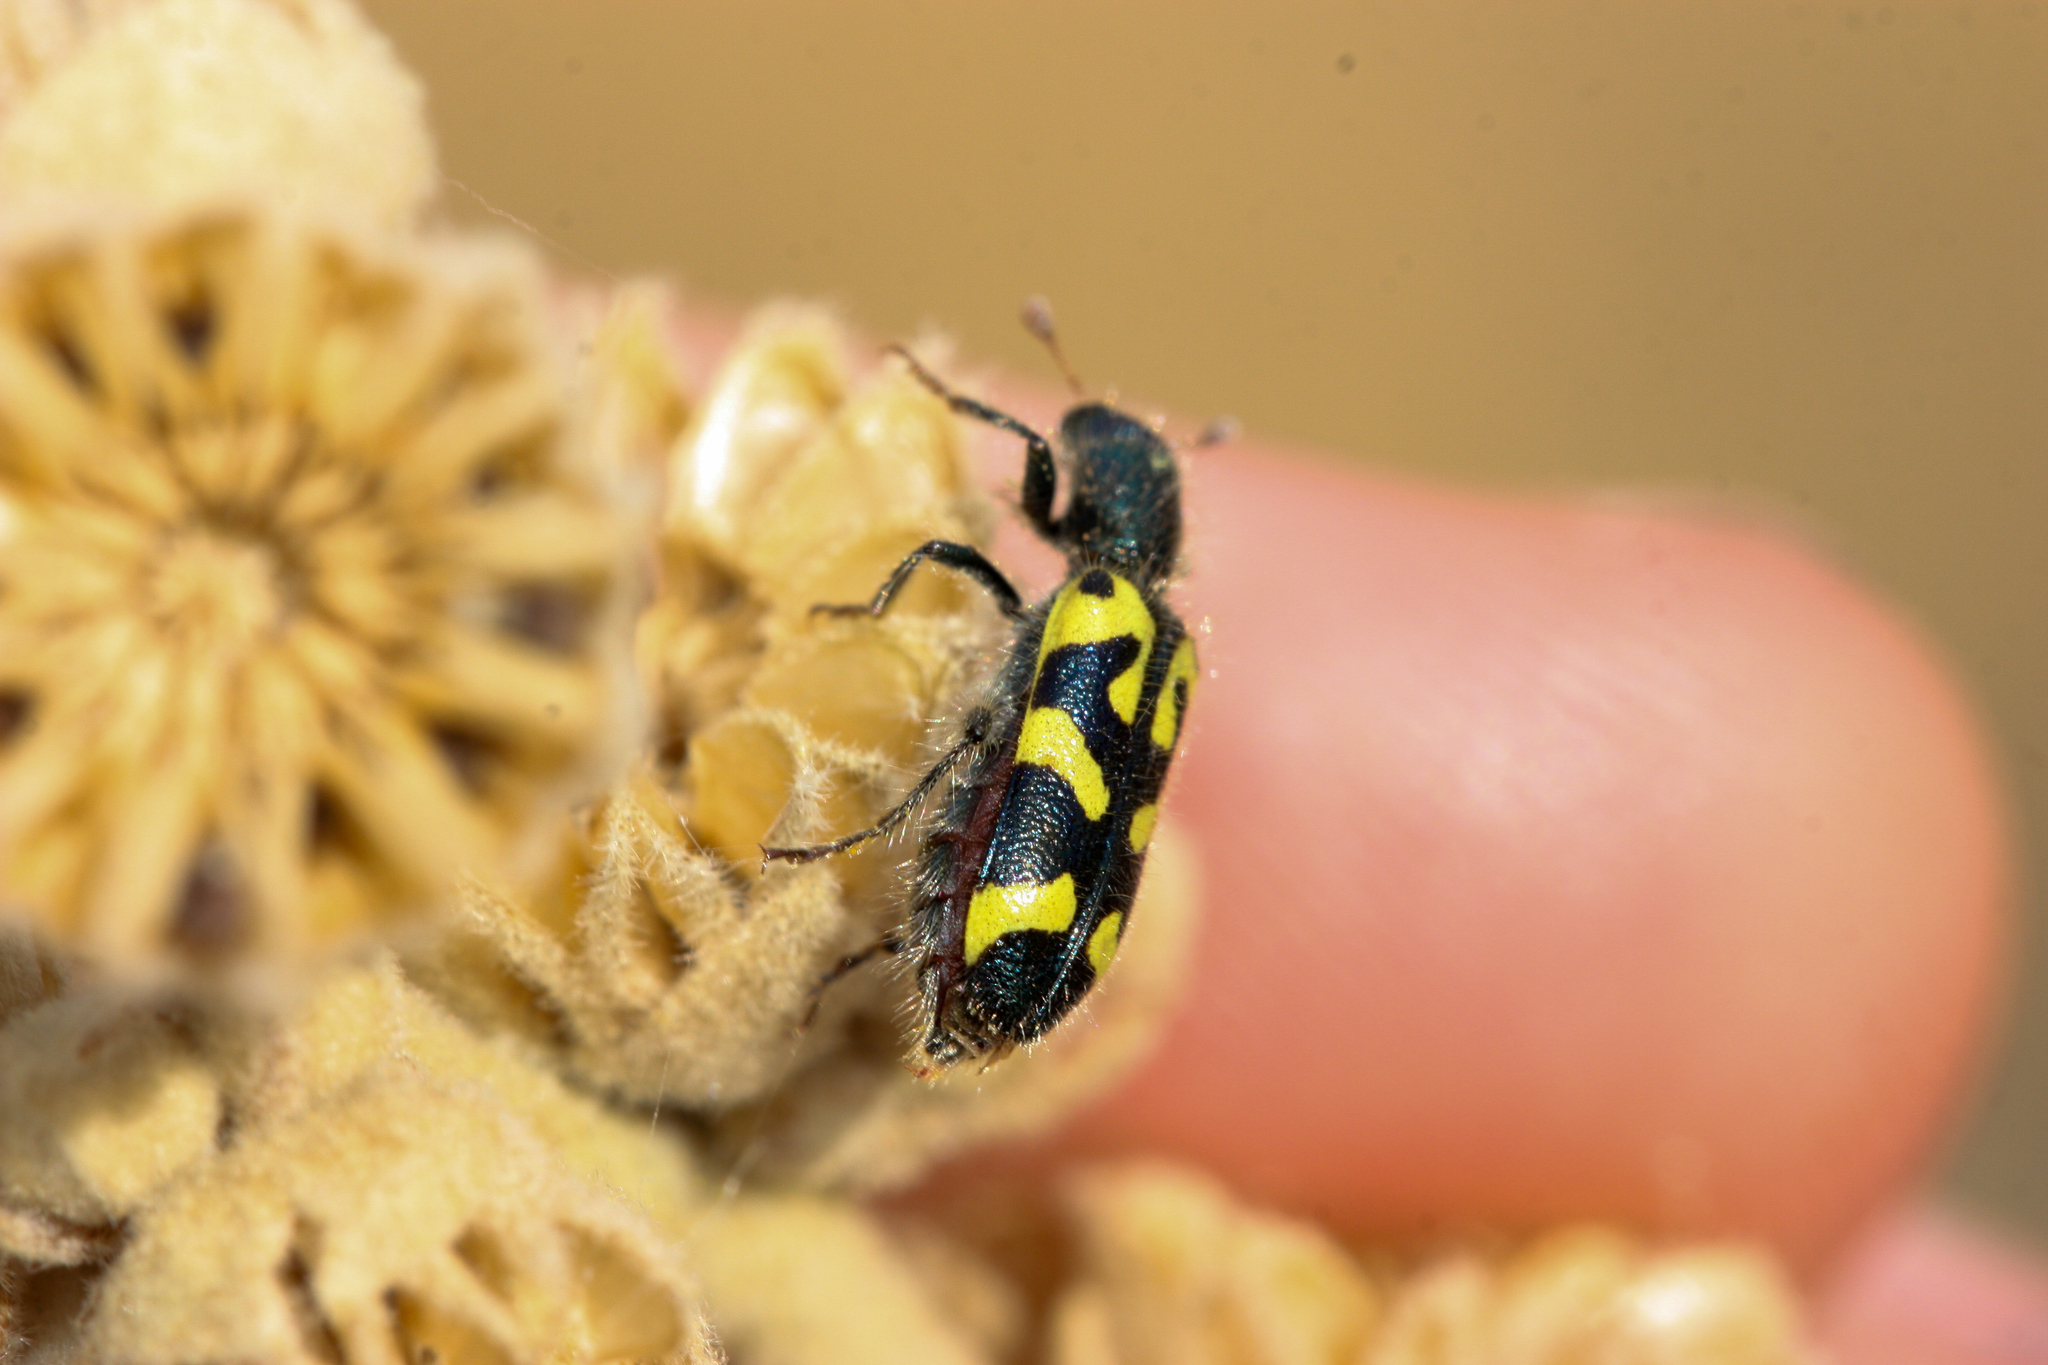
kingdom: Animalia
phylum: Arthropoda
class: Insecta
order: Coleoptera
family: Cleridae
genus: Trichodes
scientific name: Trichodes ornatus
